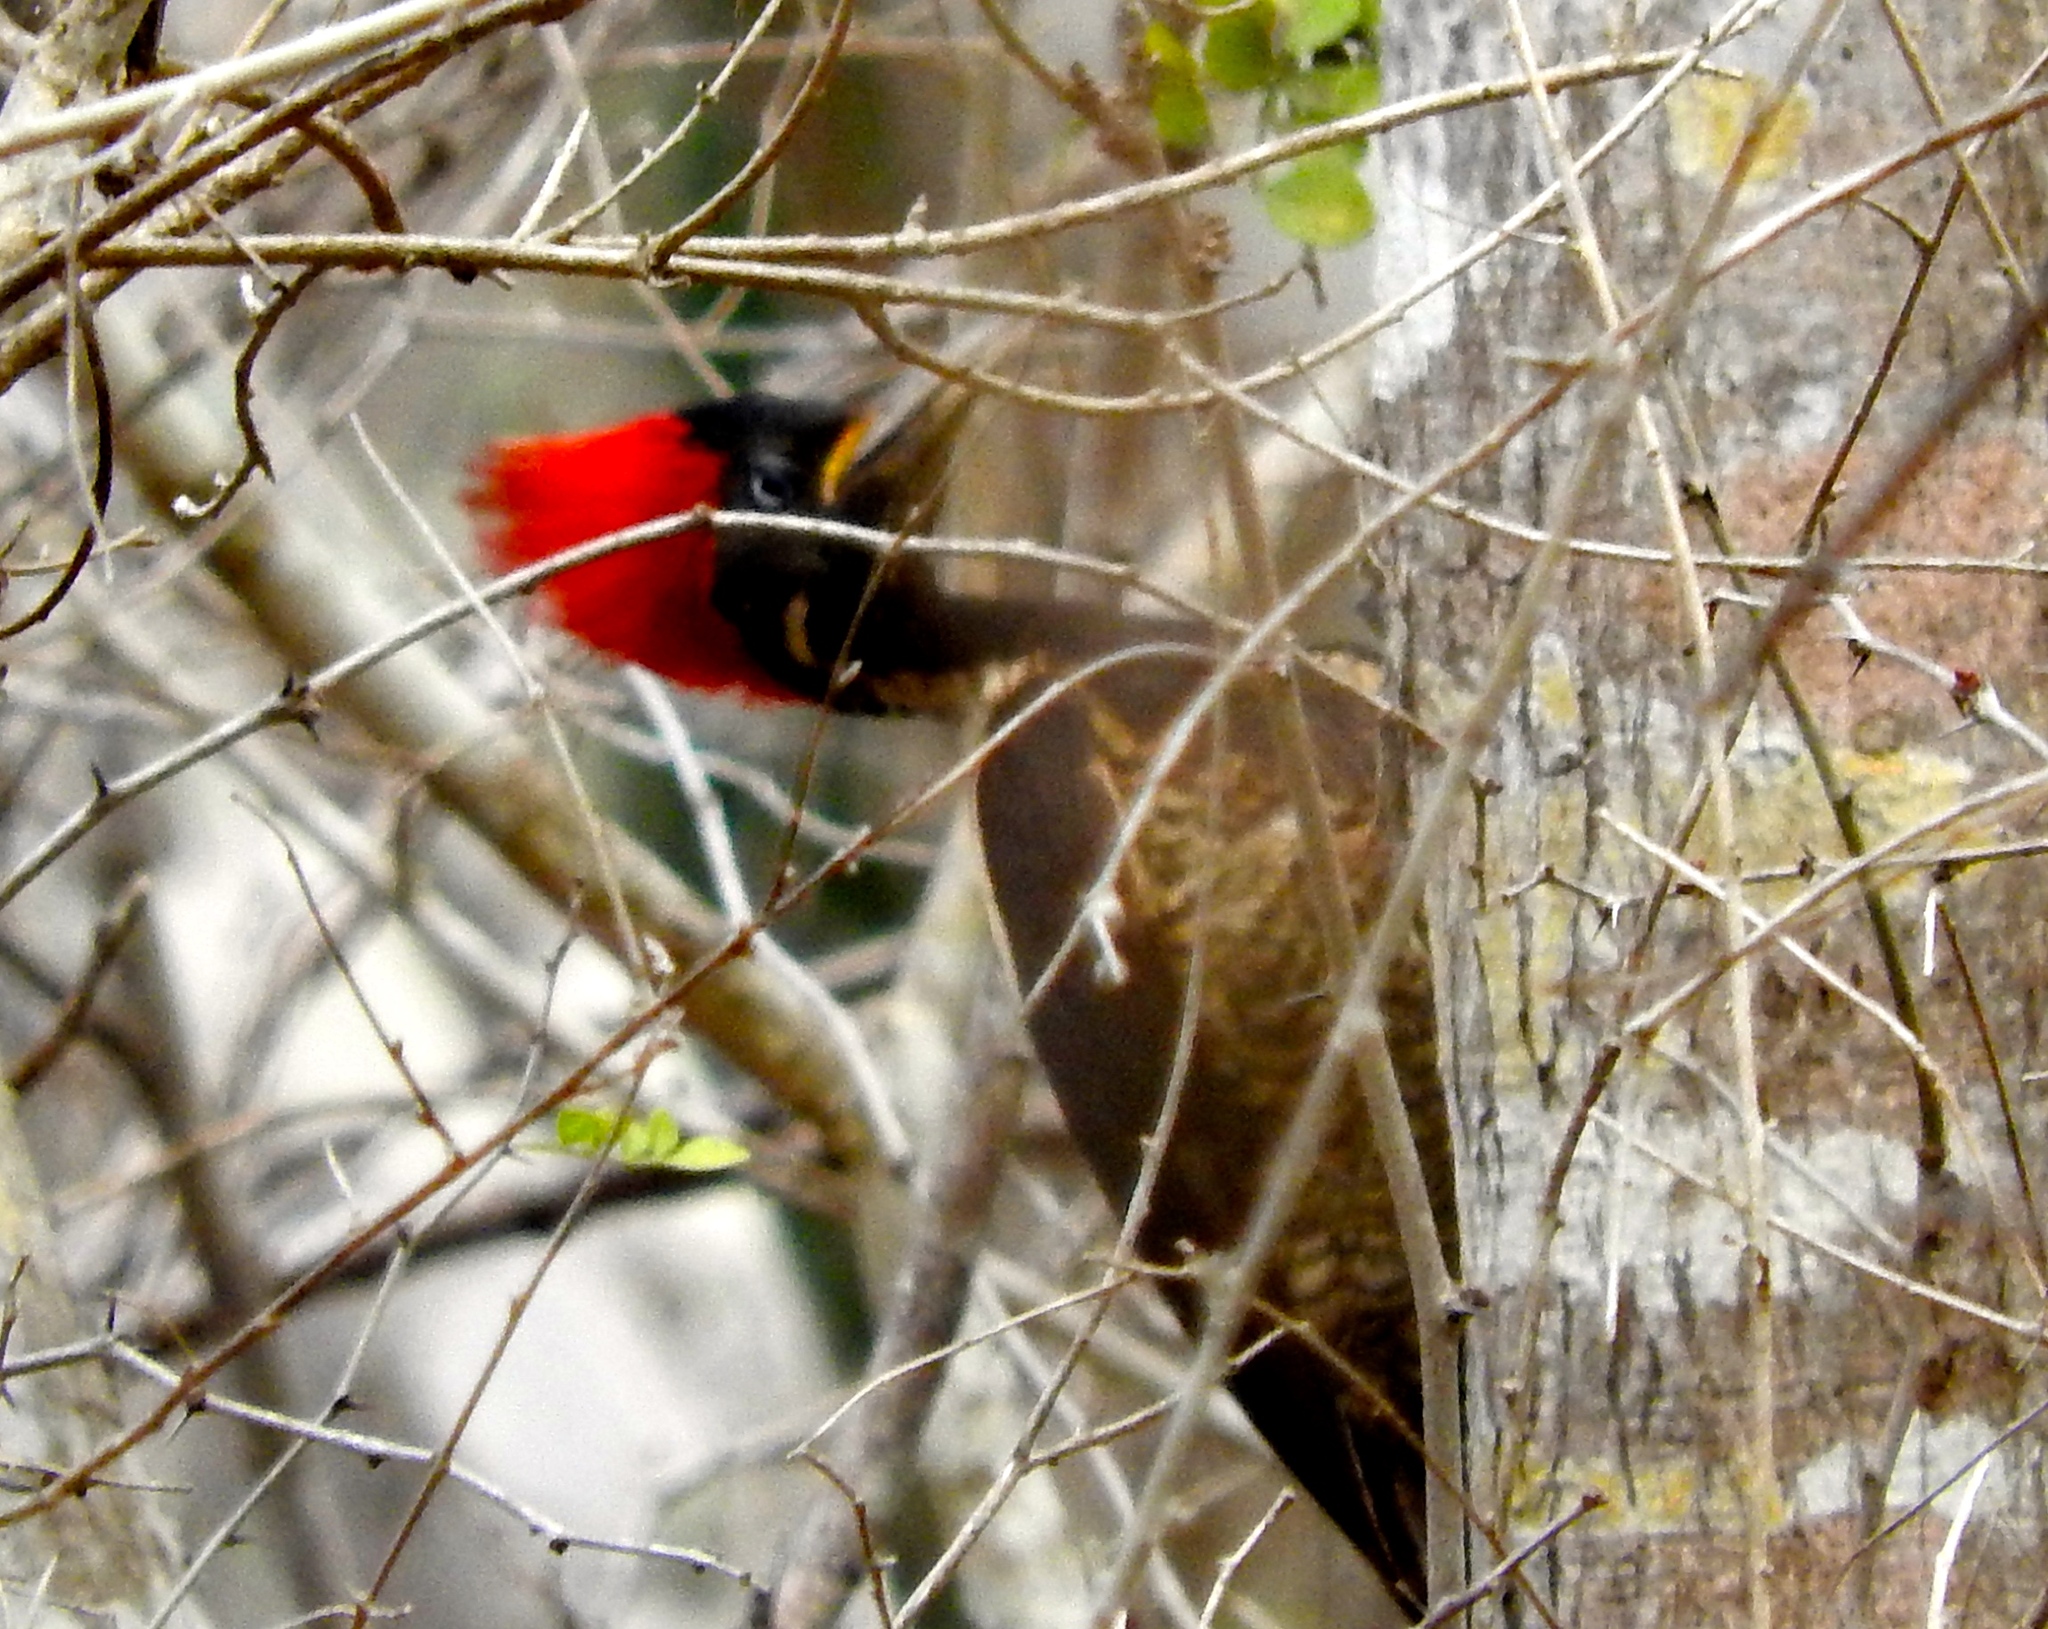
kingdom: Animalia
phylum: Chordata
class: Aves
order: Piciformes
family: Picidae
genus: Dryocopus
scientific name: Dryocopus lineatus
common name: Lineated woodpecker
